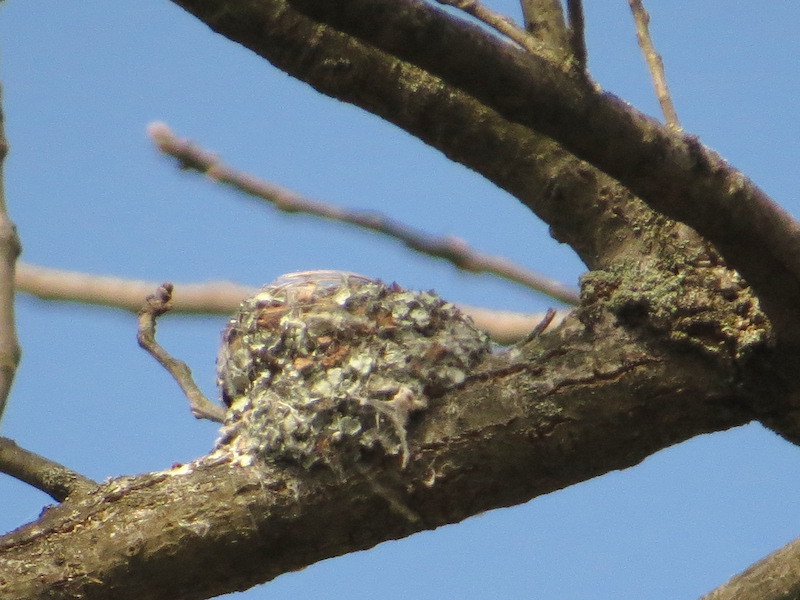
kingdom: Animalia
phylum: Chordata
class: Aves
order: Passeriformes
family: Polioptilidae
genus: Polioptila
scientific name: Polioptila caerulea
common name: Blue-gray gnatcatcher
